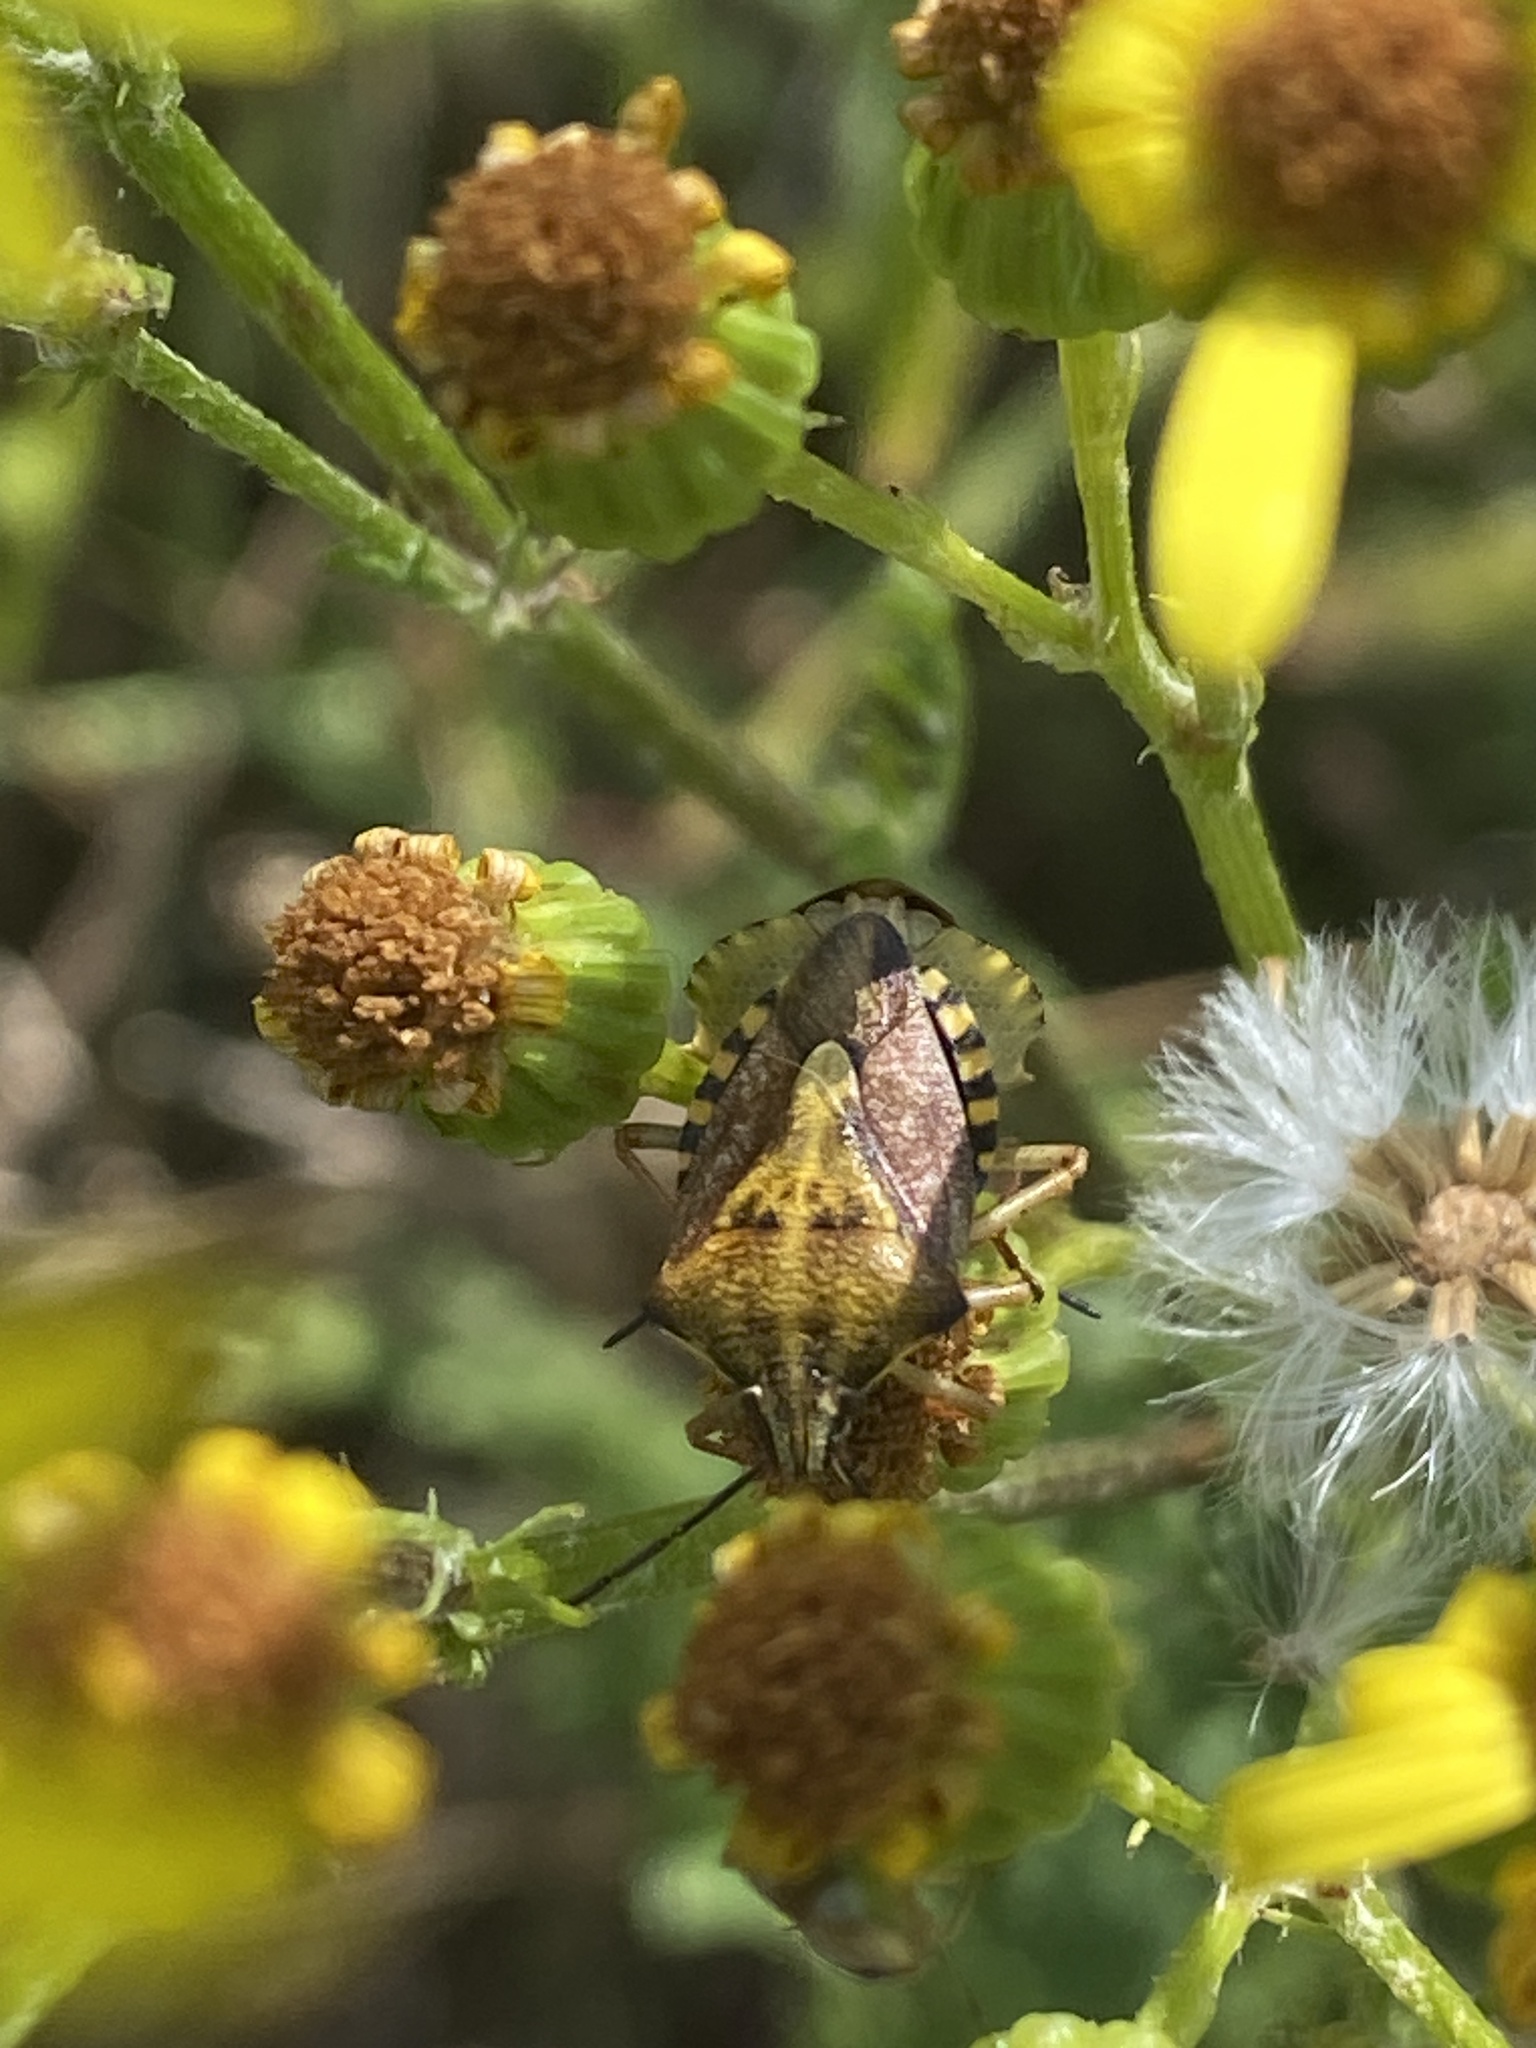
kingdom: Animalia
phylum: Arthropoda
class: Insecta
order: Hemiptera
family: Pentatomidae
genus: Carpocoris
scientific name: Carpocoris purpureipennis
